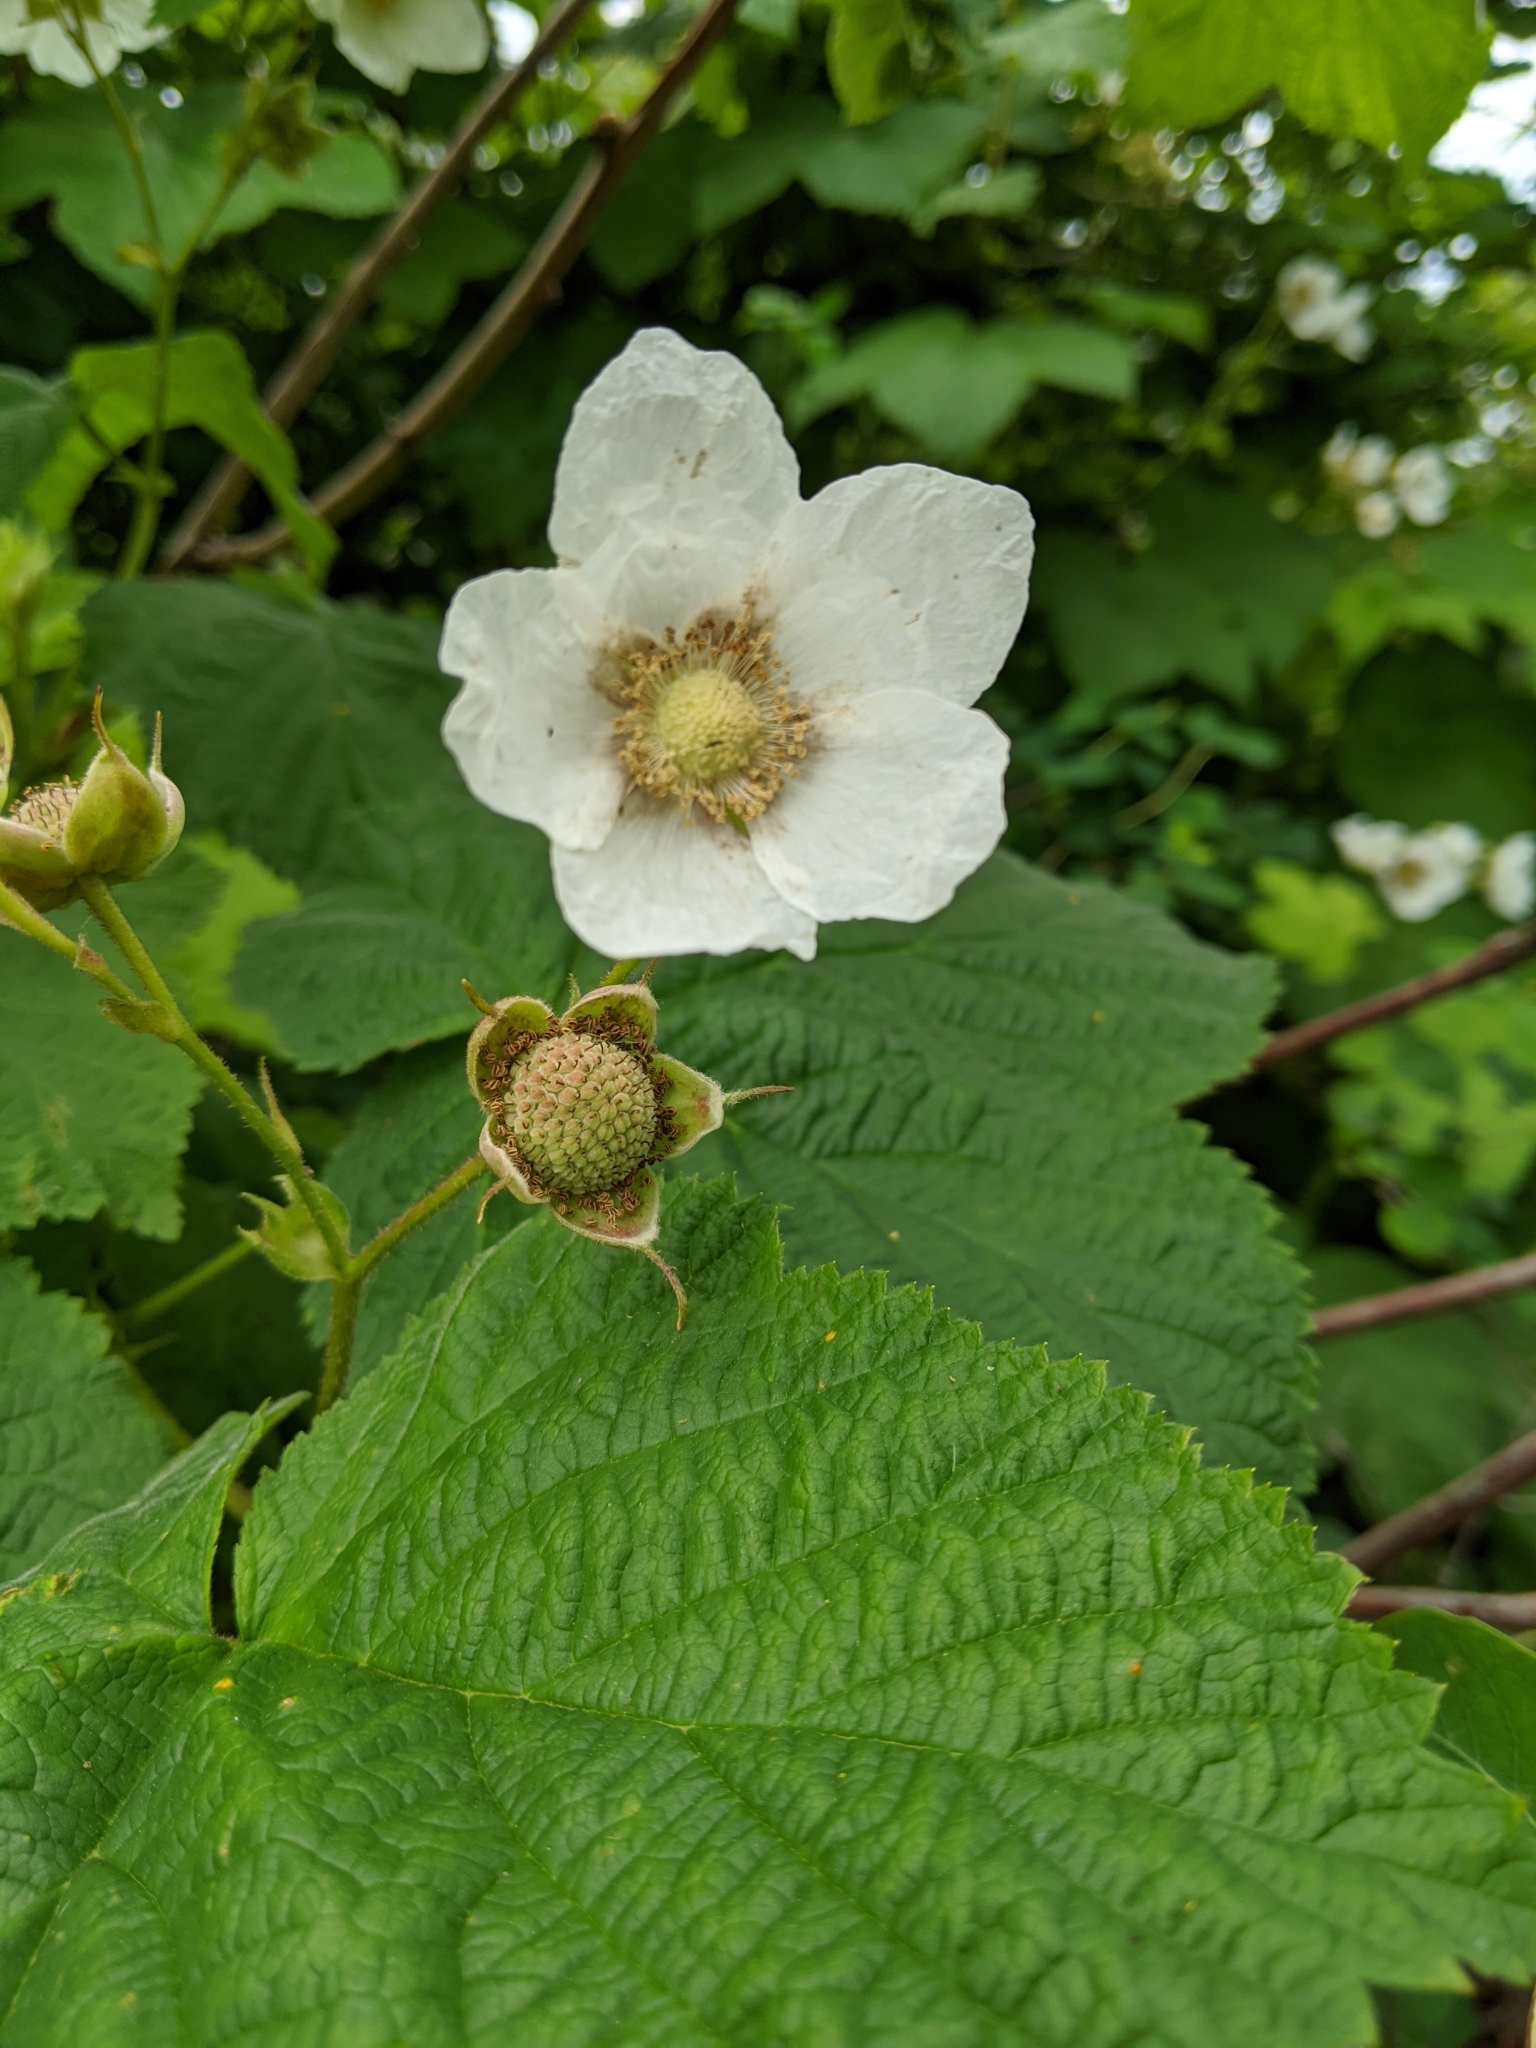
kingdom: Plantae
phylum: Tracheophyta
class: Magnoliopsida
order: Rosales
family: Rosaceae
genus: Rubus
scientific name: Rubus parviflorus
